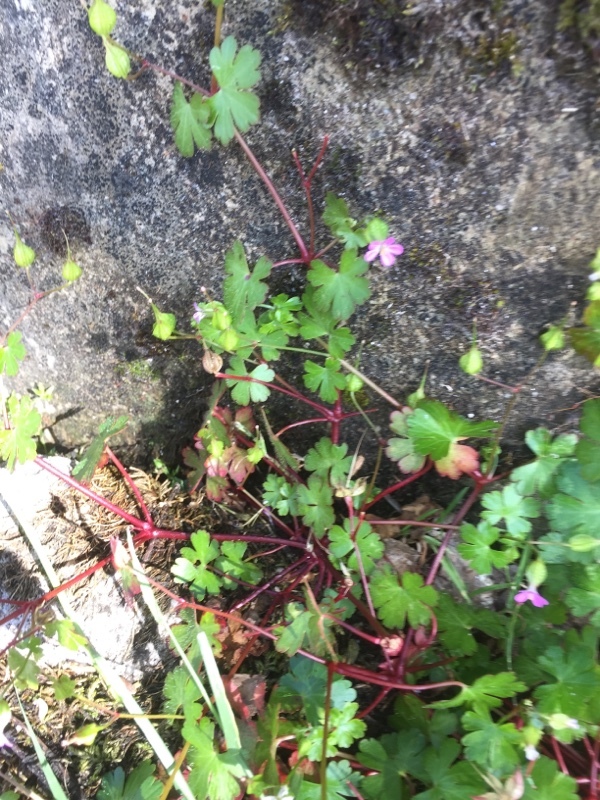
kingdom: Plantae
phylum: Tracheophyta
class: Magnoliopsida
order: Geraniales
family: Geraniaceae
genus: Geranium
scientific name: Geranium lucidum
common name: Shining crane's-bill
